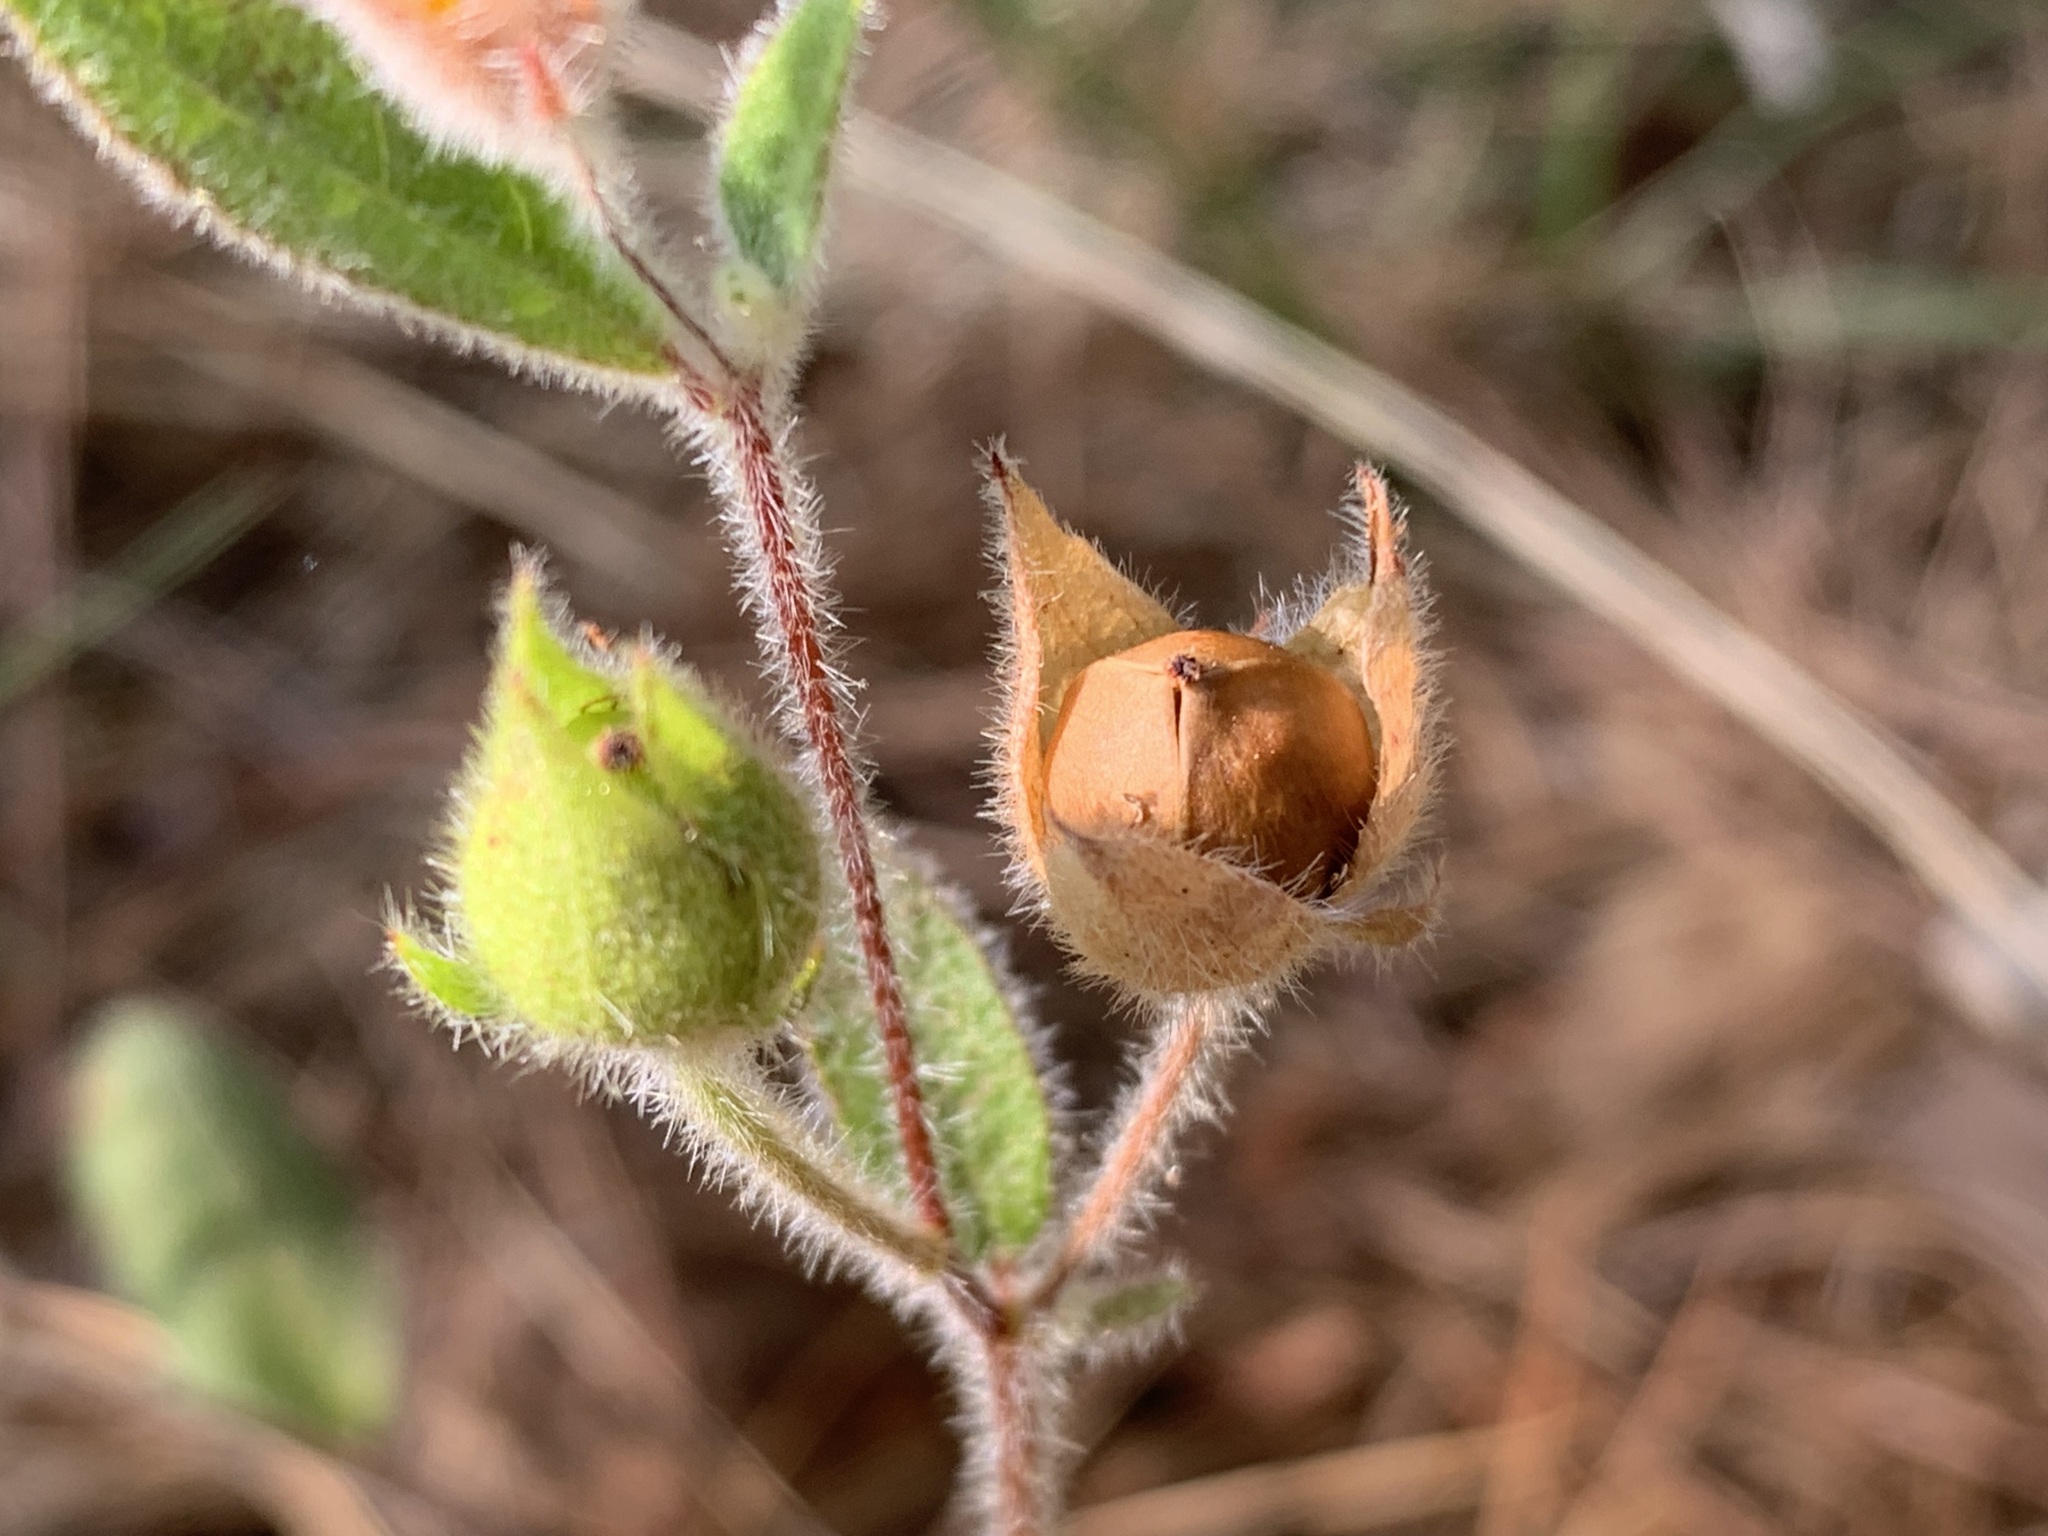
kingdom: Plantae
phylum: Tracheophyta
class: Magnoliopsida
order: Malvales
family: Cistaceae
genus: Crocanthemum
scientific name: Crocanthemum carolinianum
